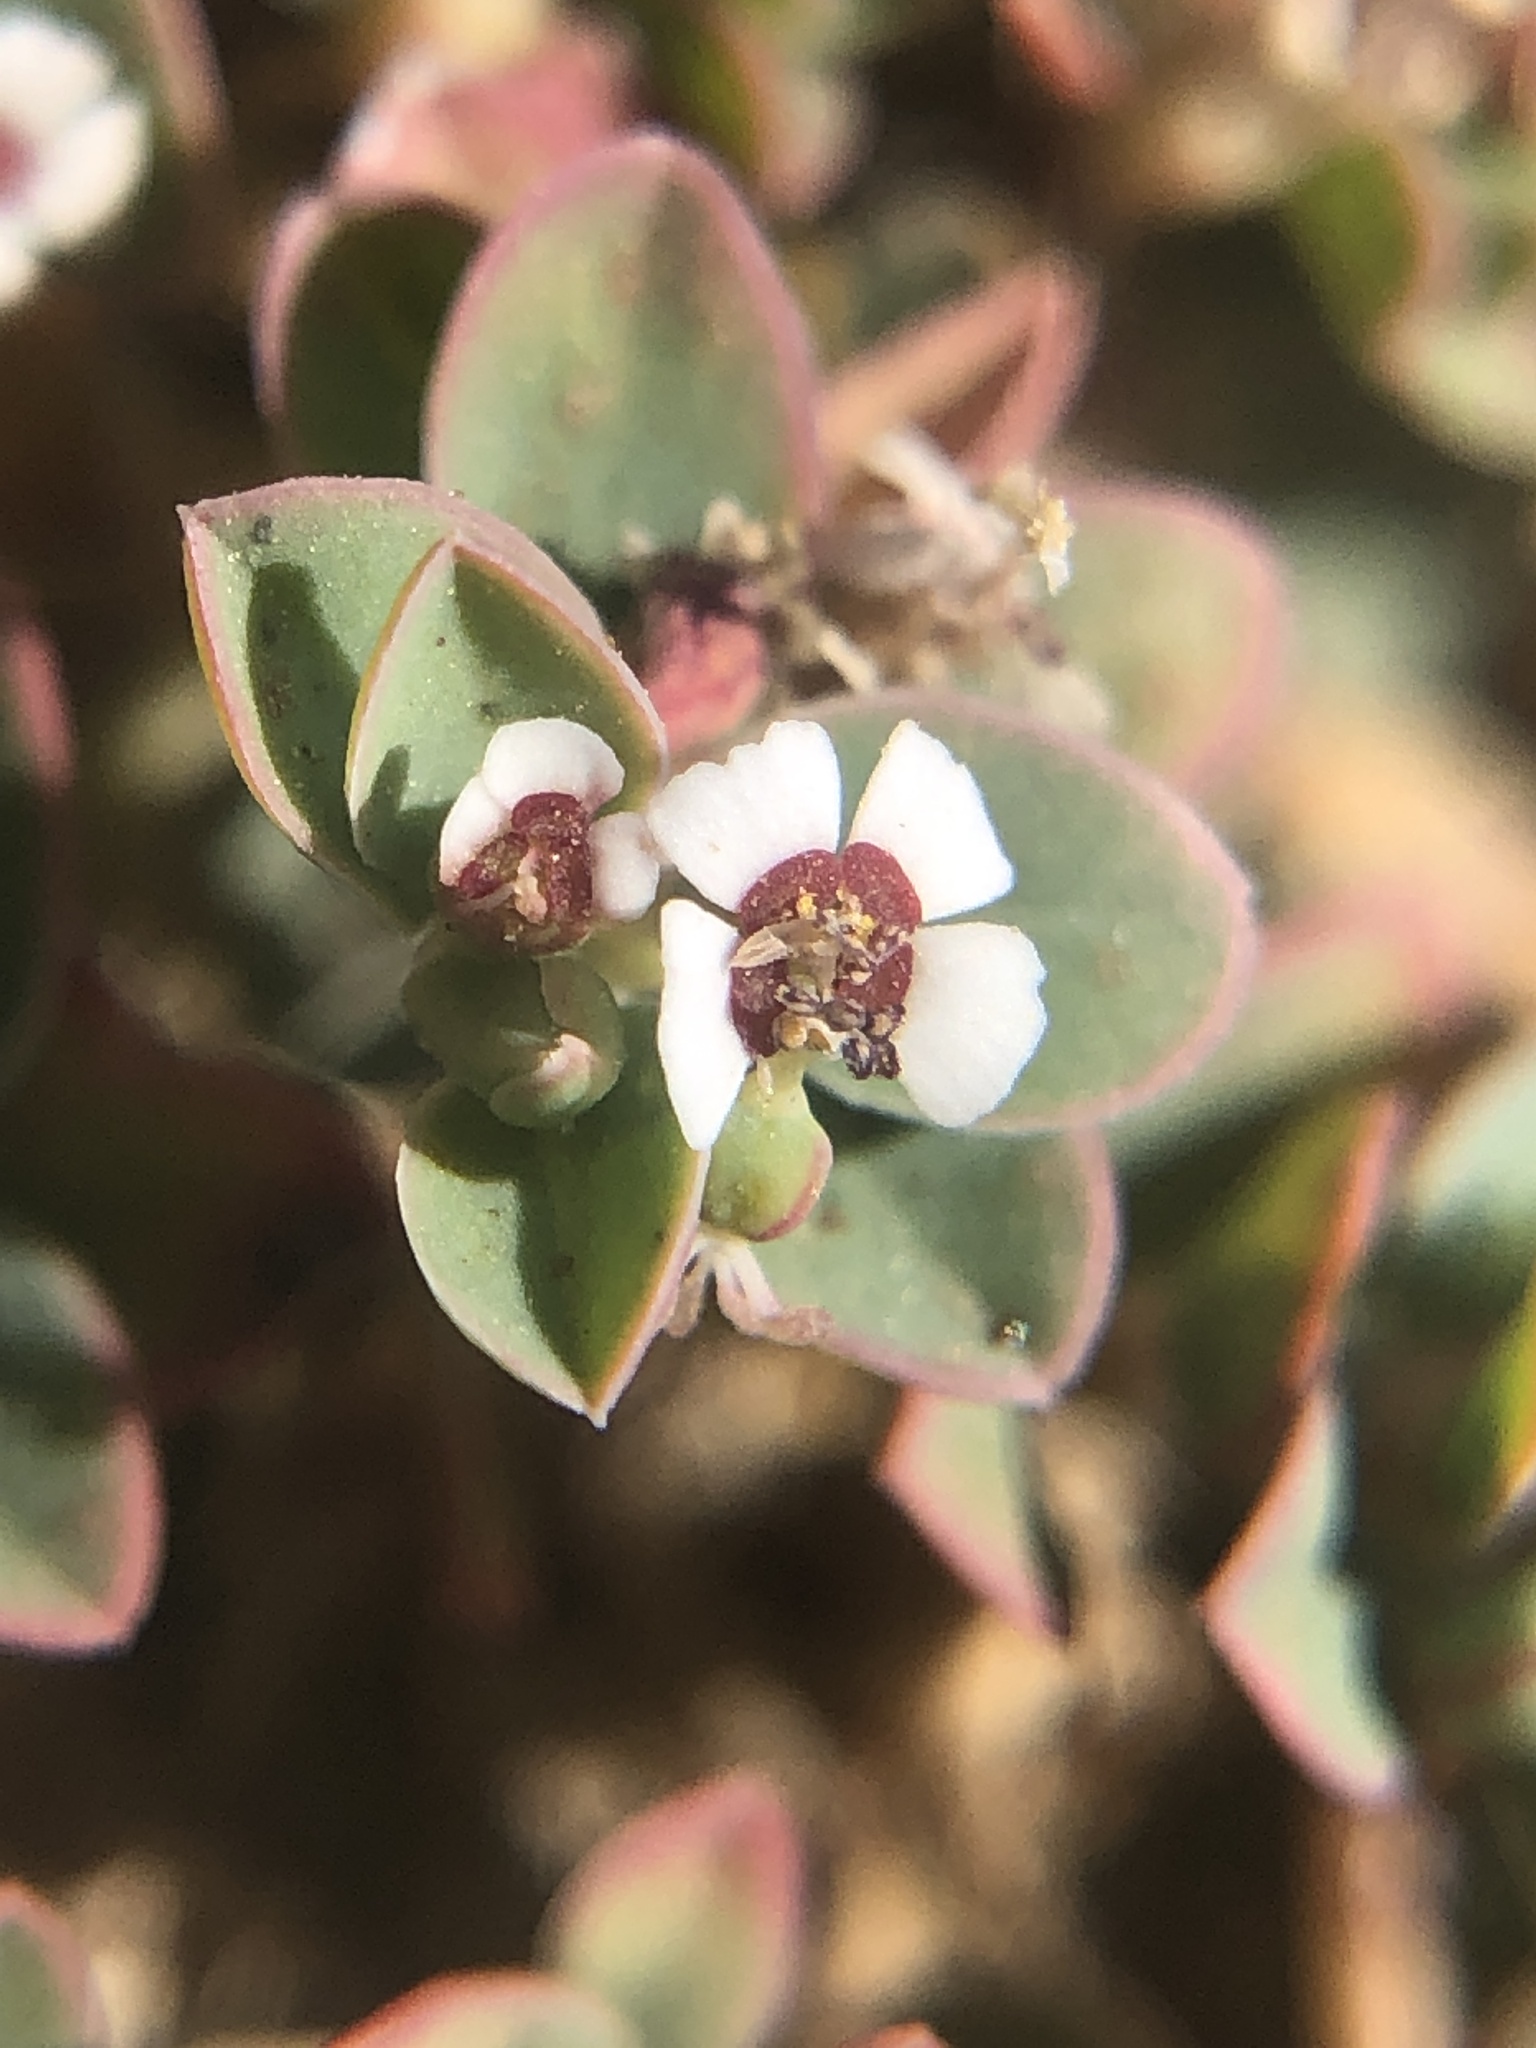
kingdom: Plantae
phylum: Tracheophyta
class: Magnoliopsida
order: Malpighiales
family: Euphorbiaceae
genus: Euphorbia
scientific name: Euphorbia albomarginata
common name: Whitemargin sandmat
